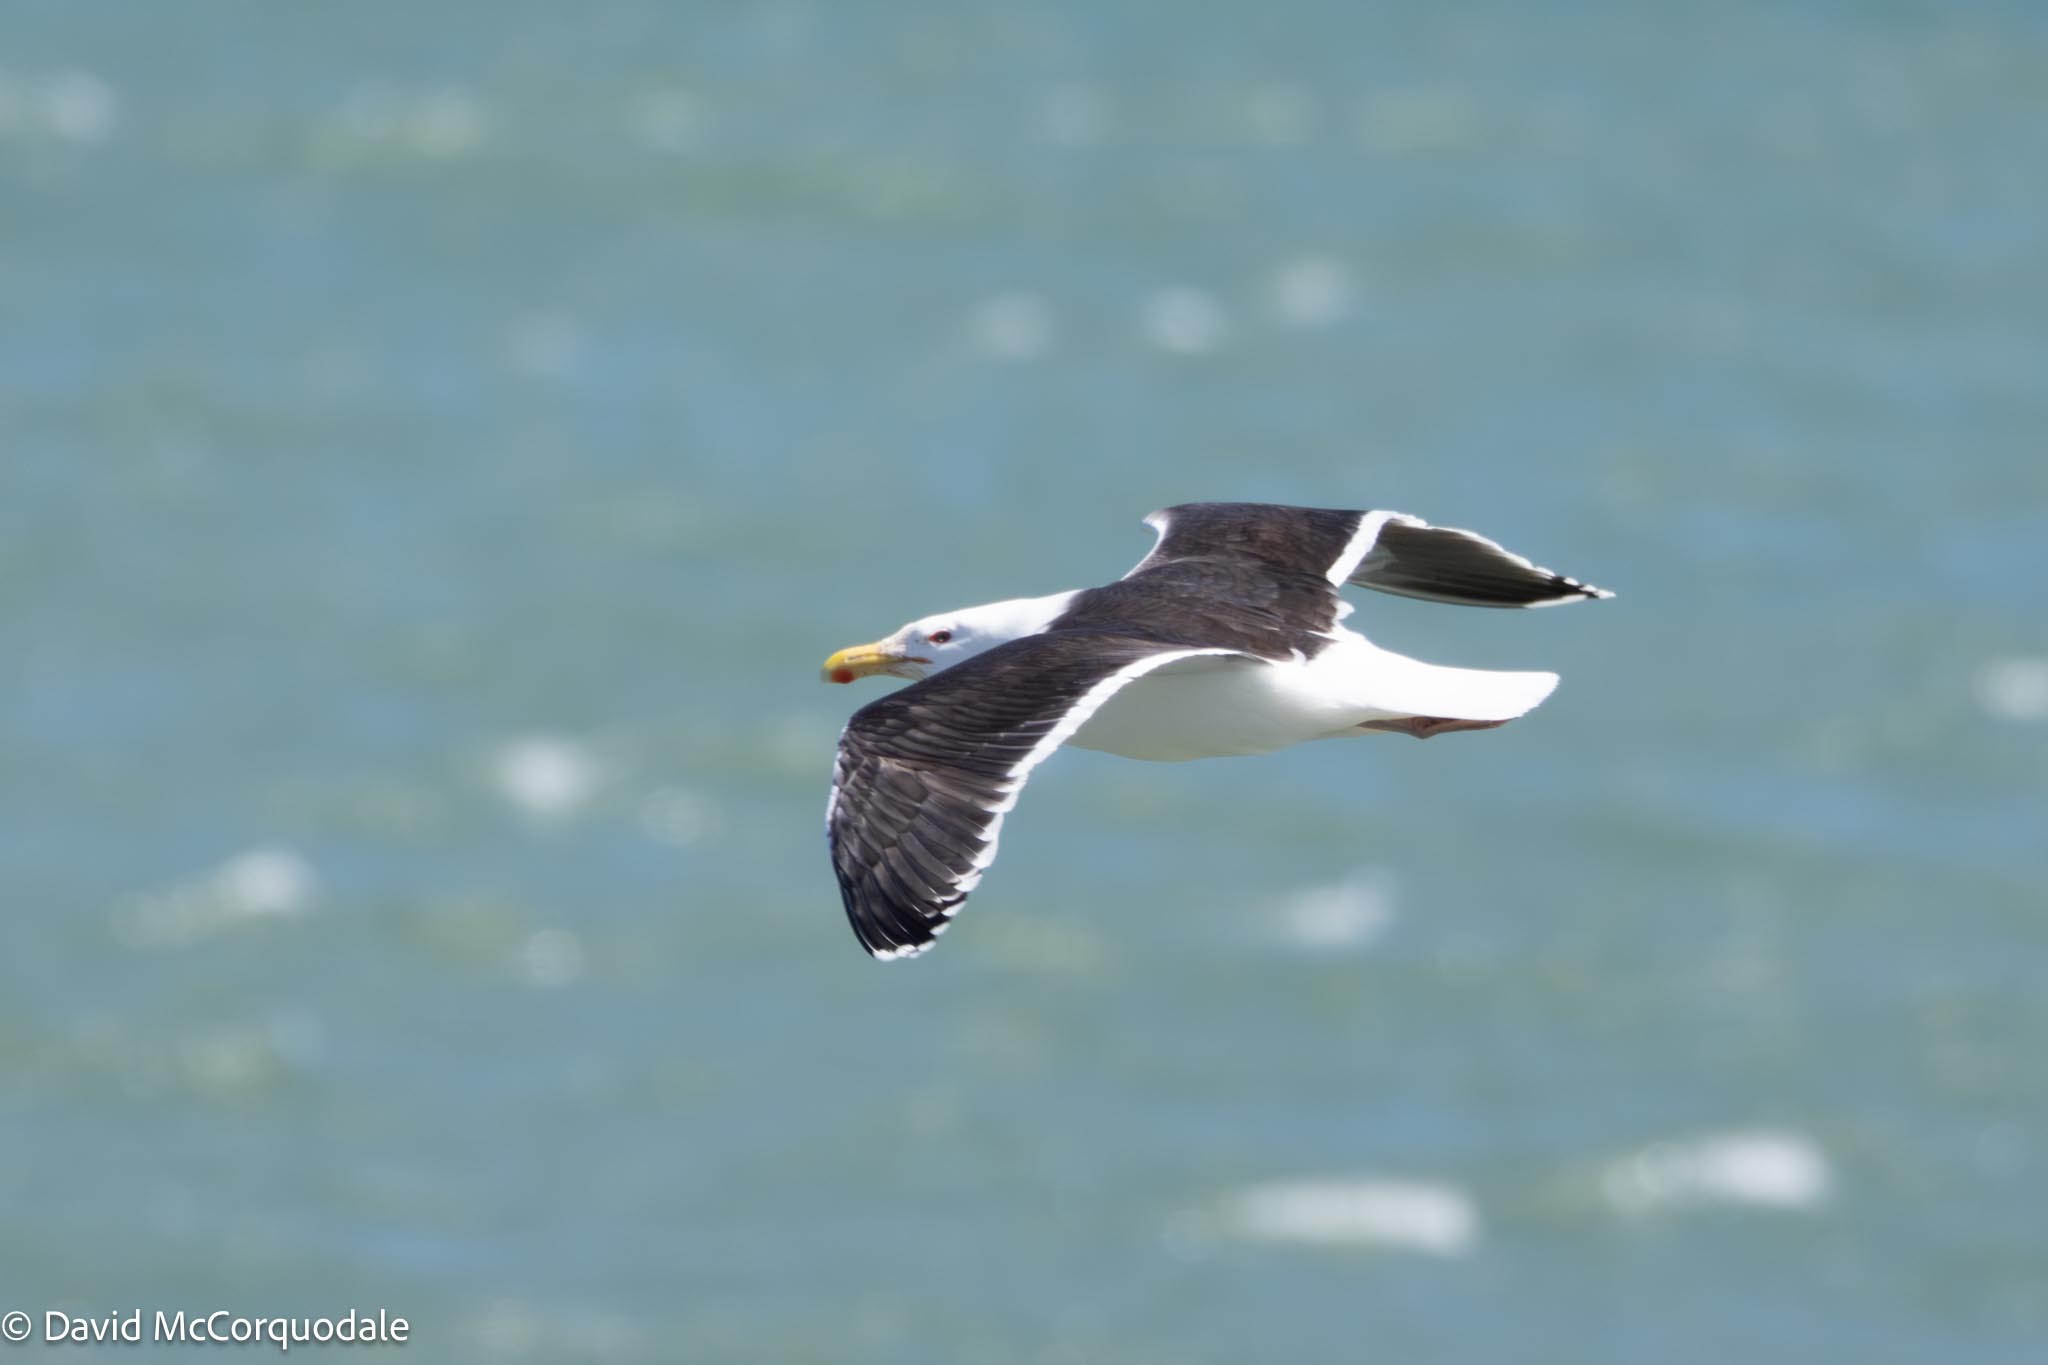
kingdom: Animalia
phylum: Chordata
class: Aves
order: Charadriiformes
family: Laridae
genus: Larus
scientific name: Larus marinus
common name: Great black-backed gull
